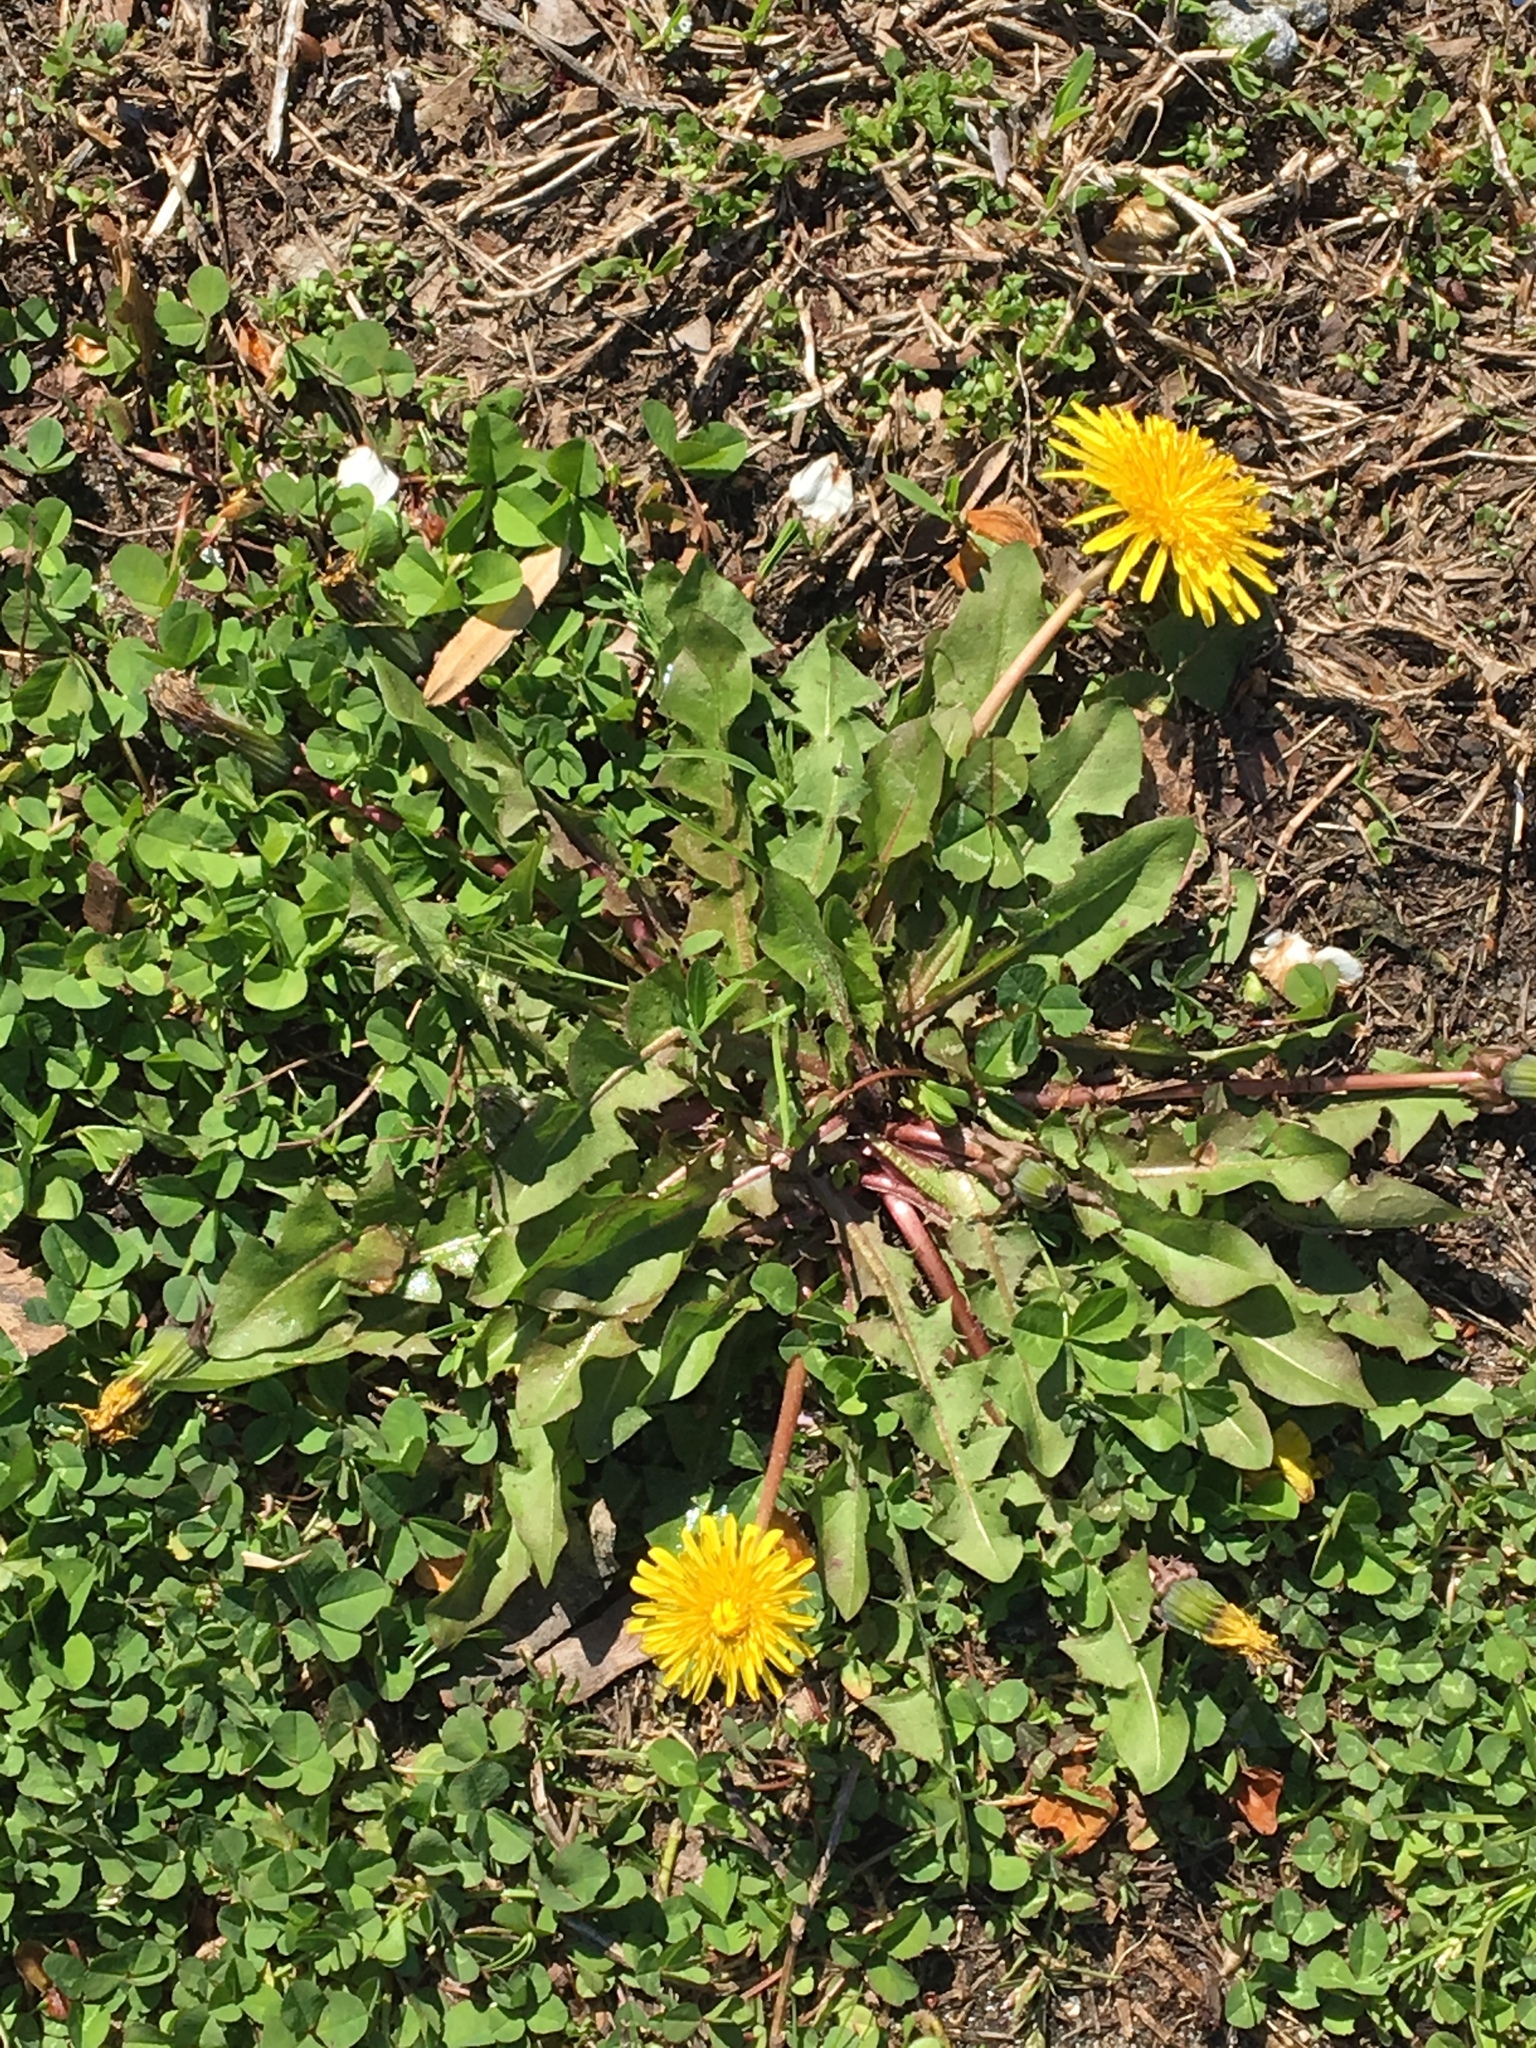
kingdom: Plantae
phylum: Tracheophyta
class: Magnoliopsida
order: Asterales
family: Asteraceae
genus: Taraxacum
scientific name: Taraxacum officinale
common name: Common dandelion
